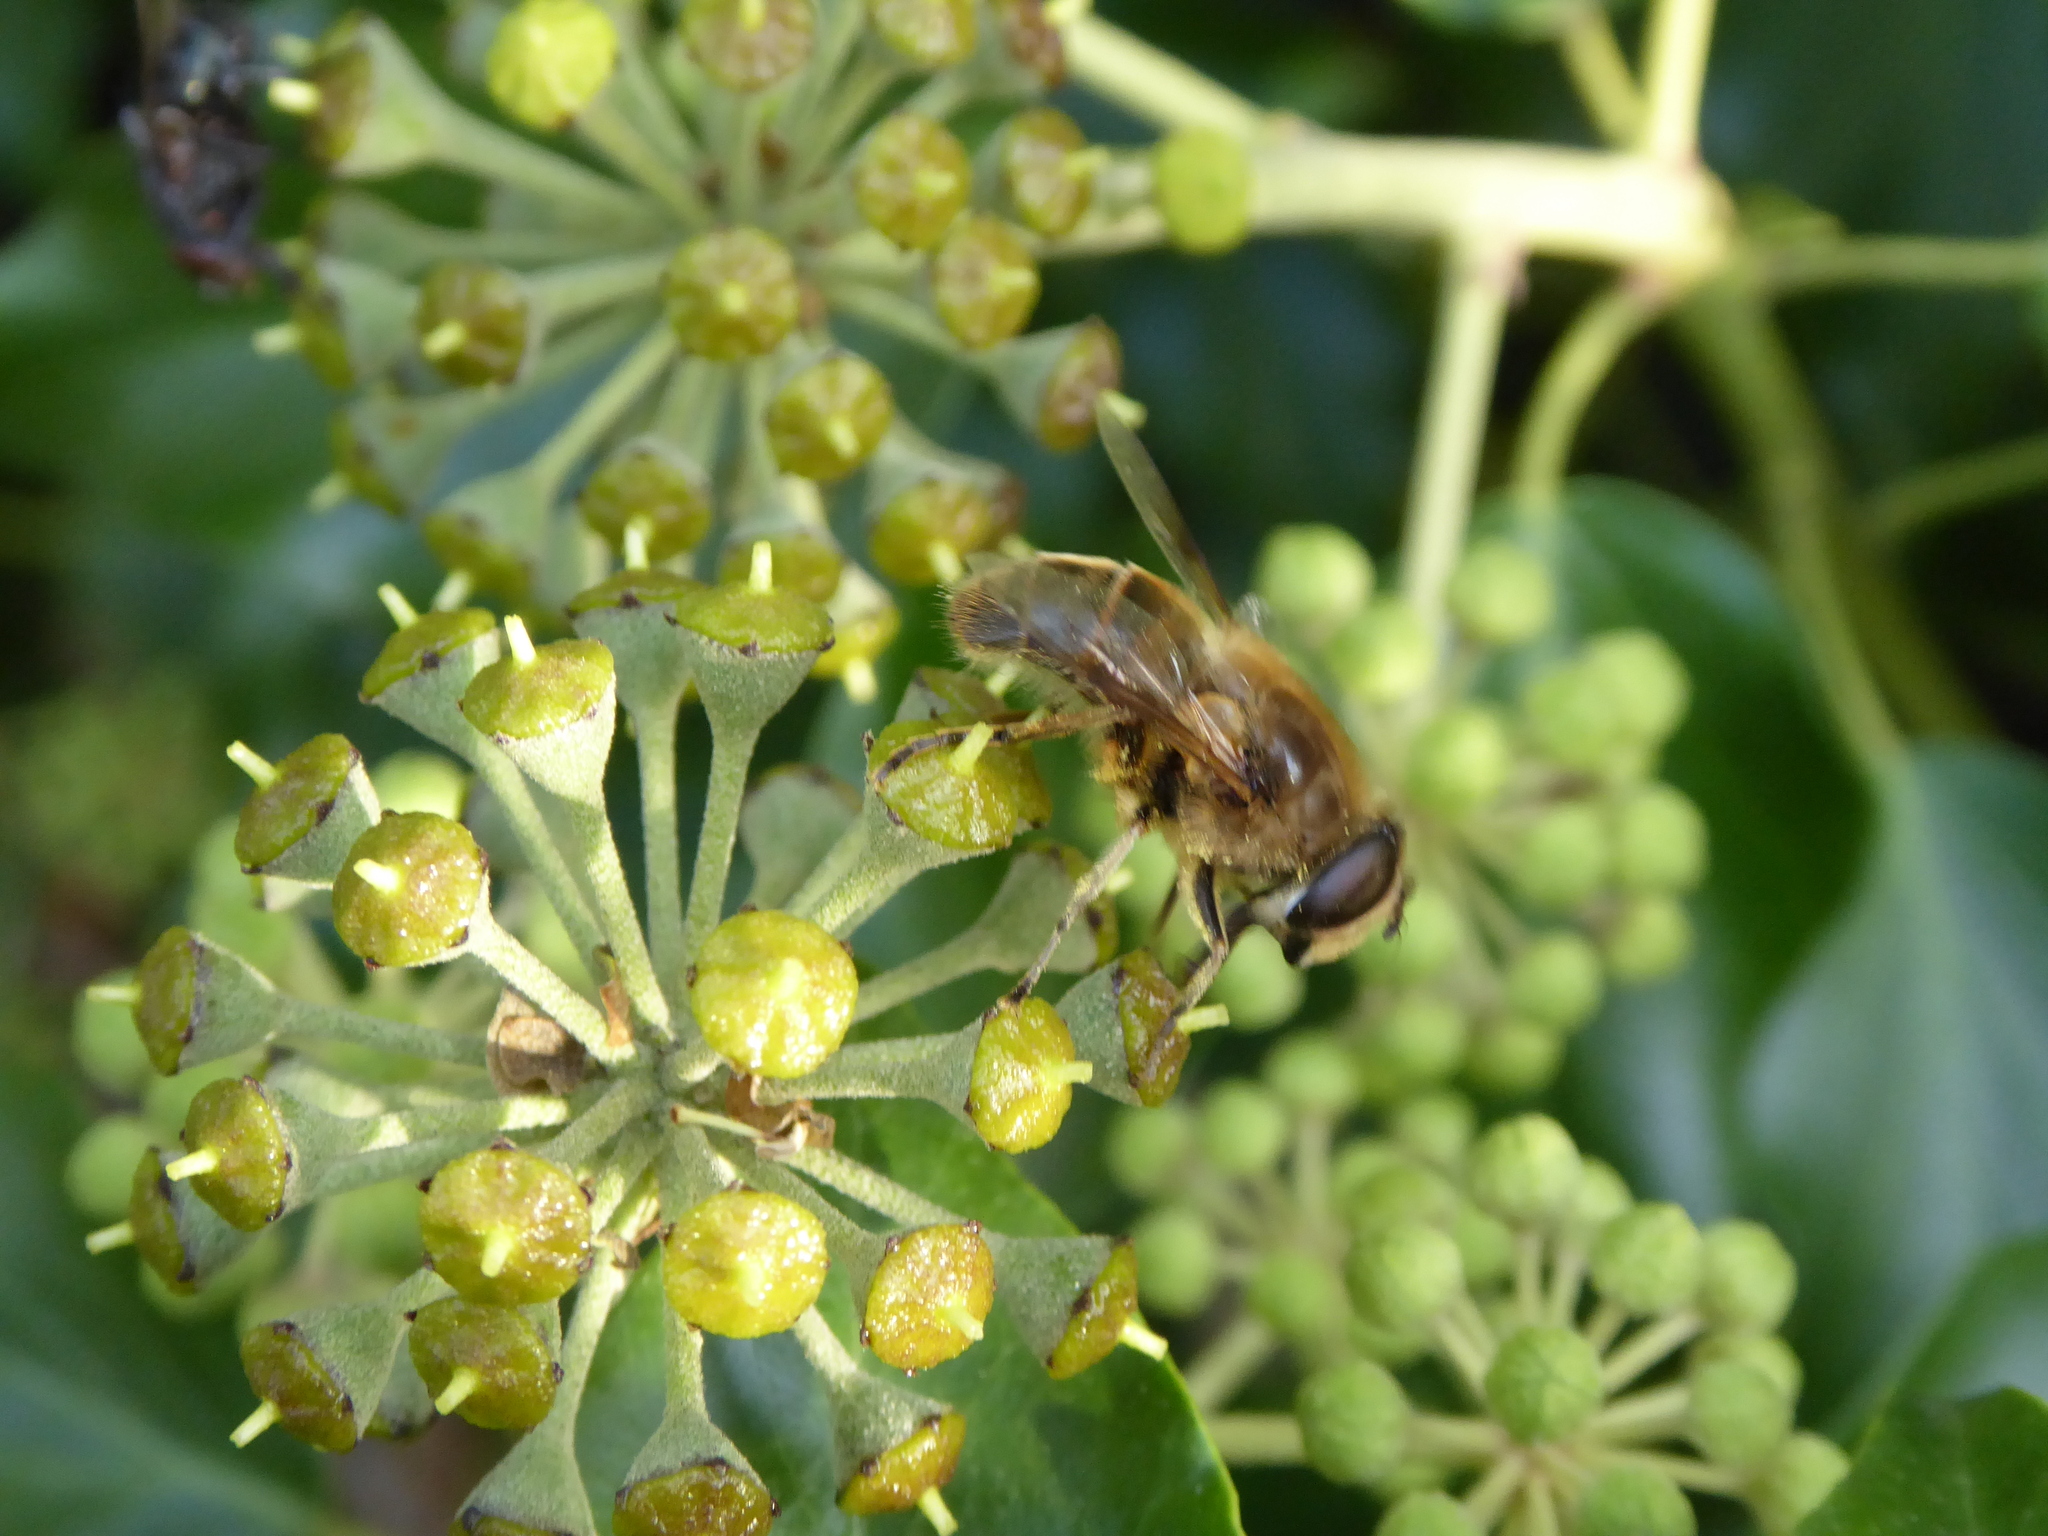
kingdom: Animalia
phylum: Arthropoda
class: Insecta
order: Diptera
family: Syrphidae
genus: Eristalis
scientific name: Eristalis tenax
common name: Drone fly
